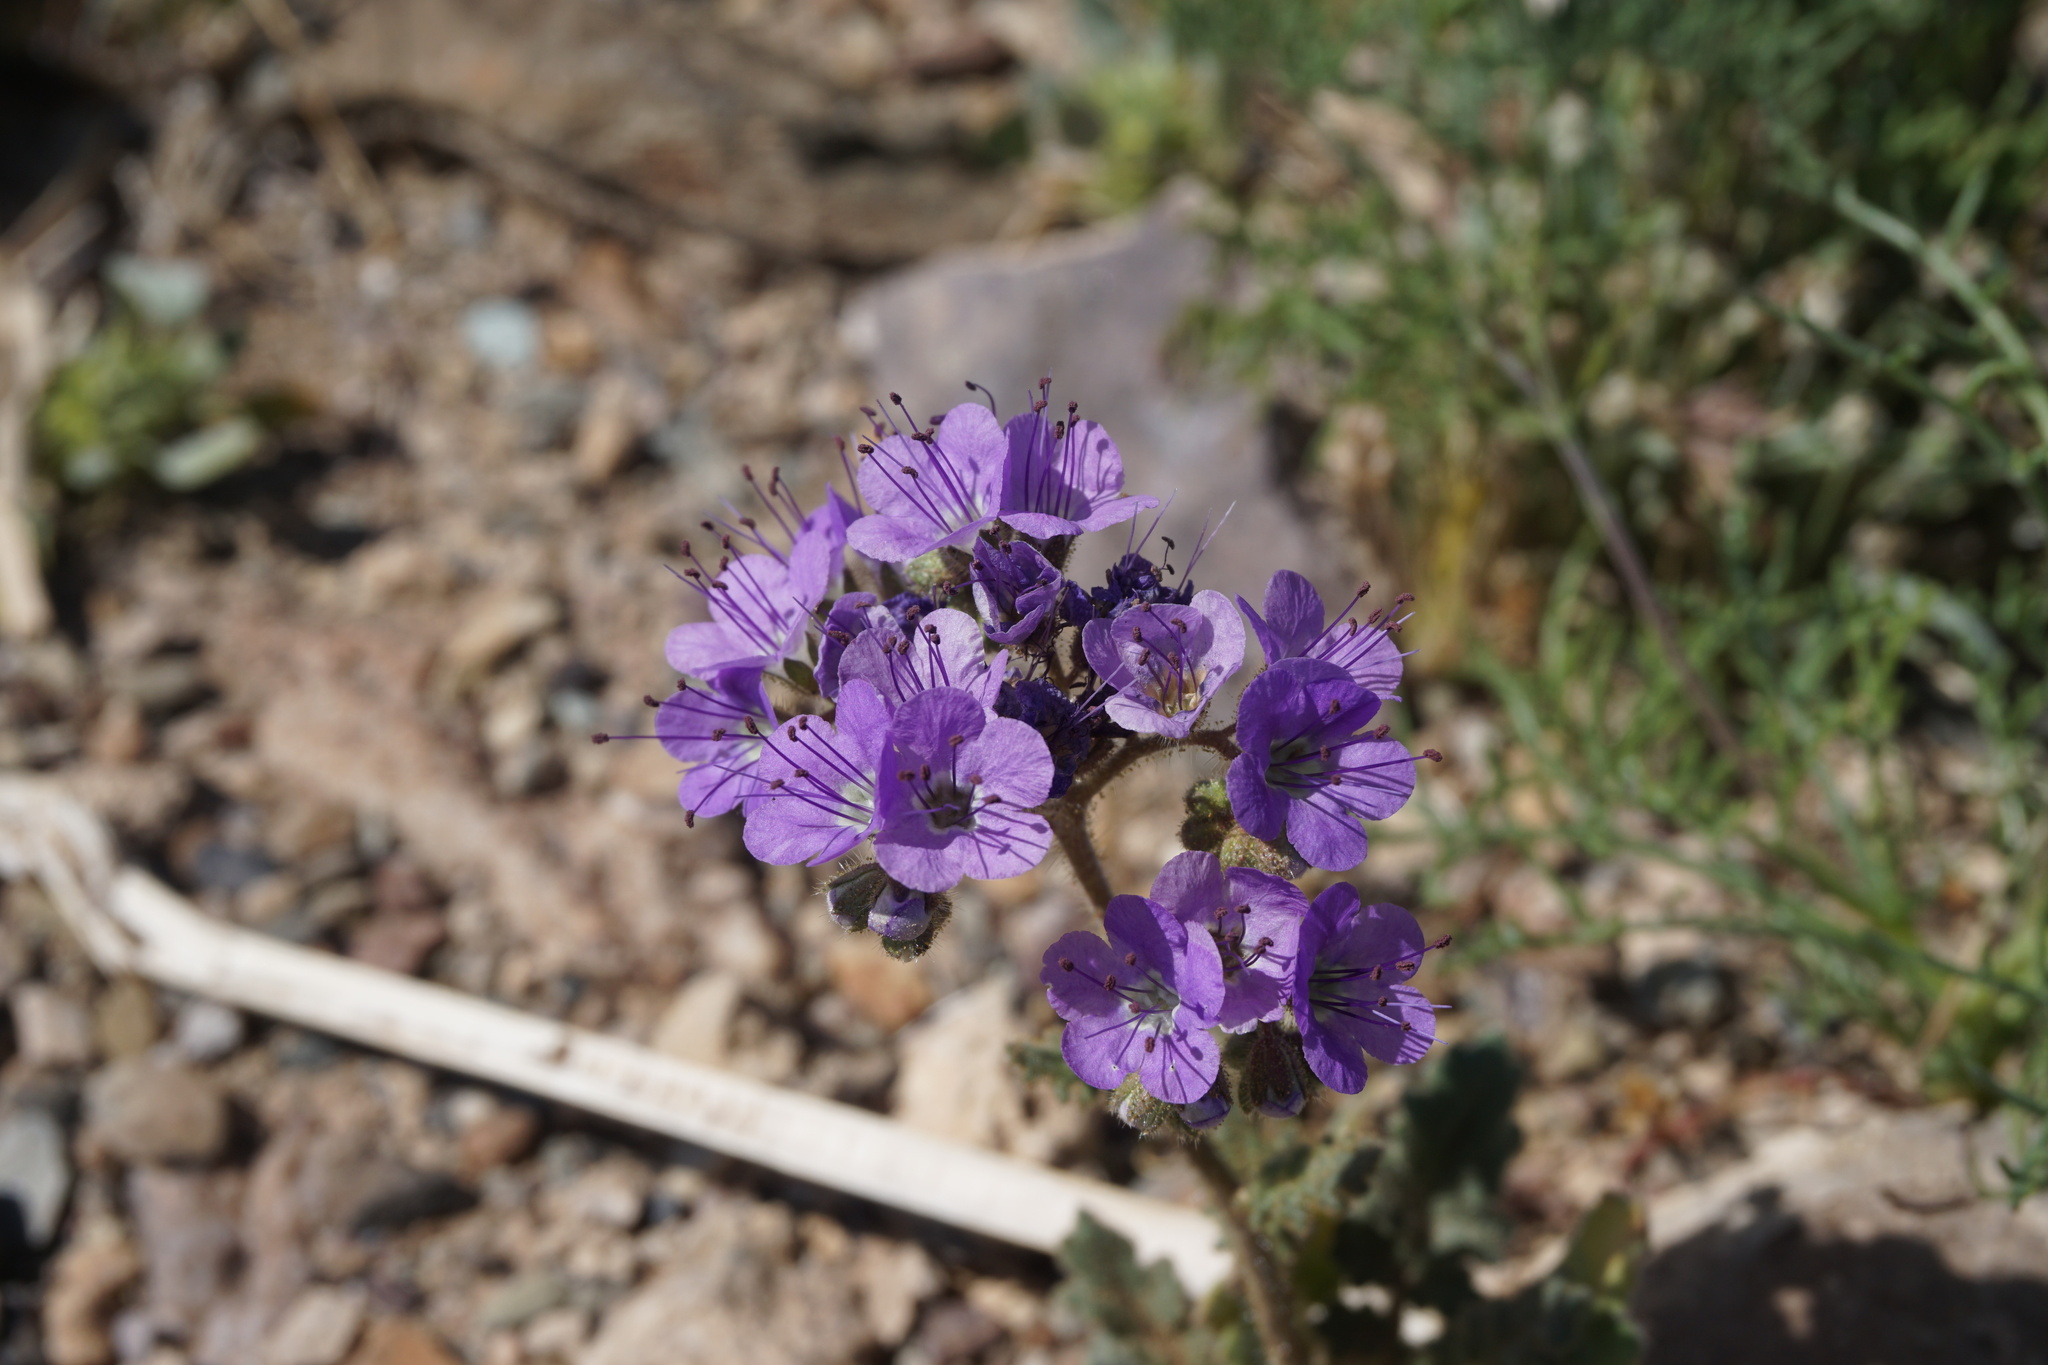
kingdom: Plantae
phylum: Tracheophyta
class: Magnoliopsida
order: Boraginales
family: Hydrophyllaceae
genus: Phacelia
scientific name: Phacelia crenulata
